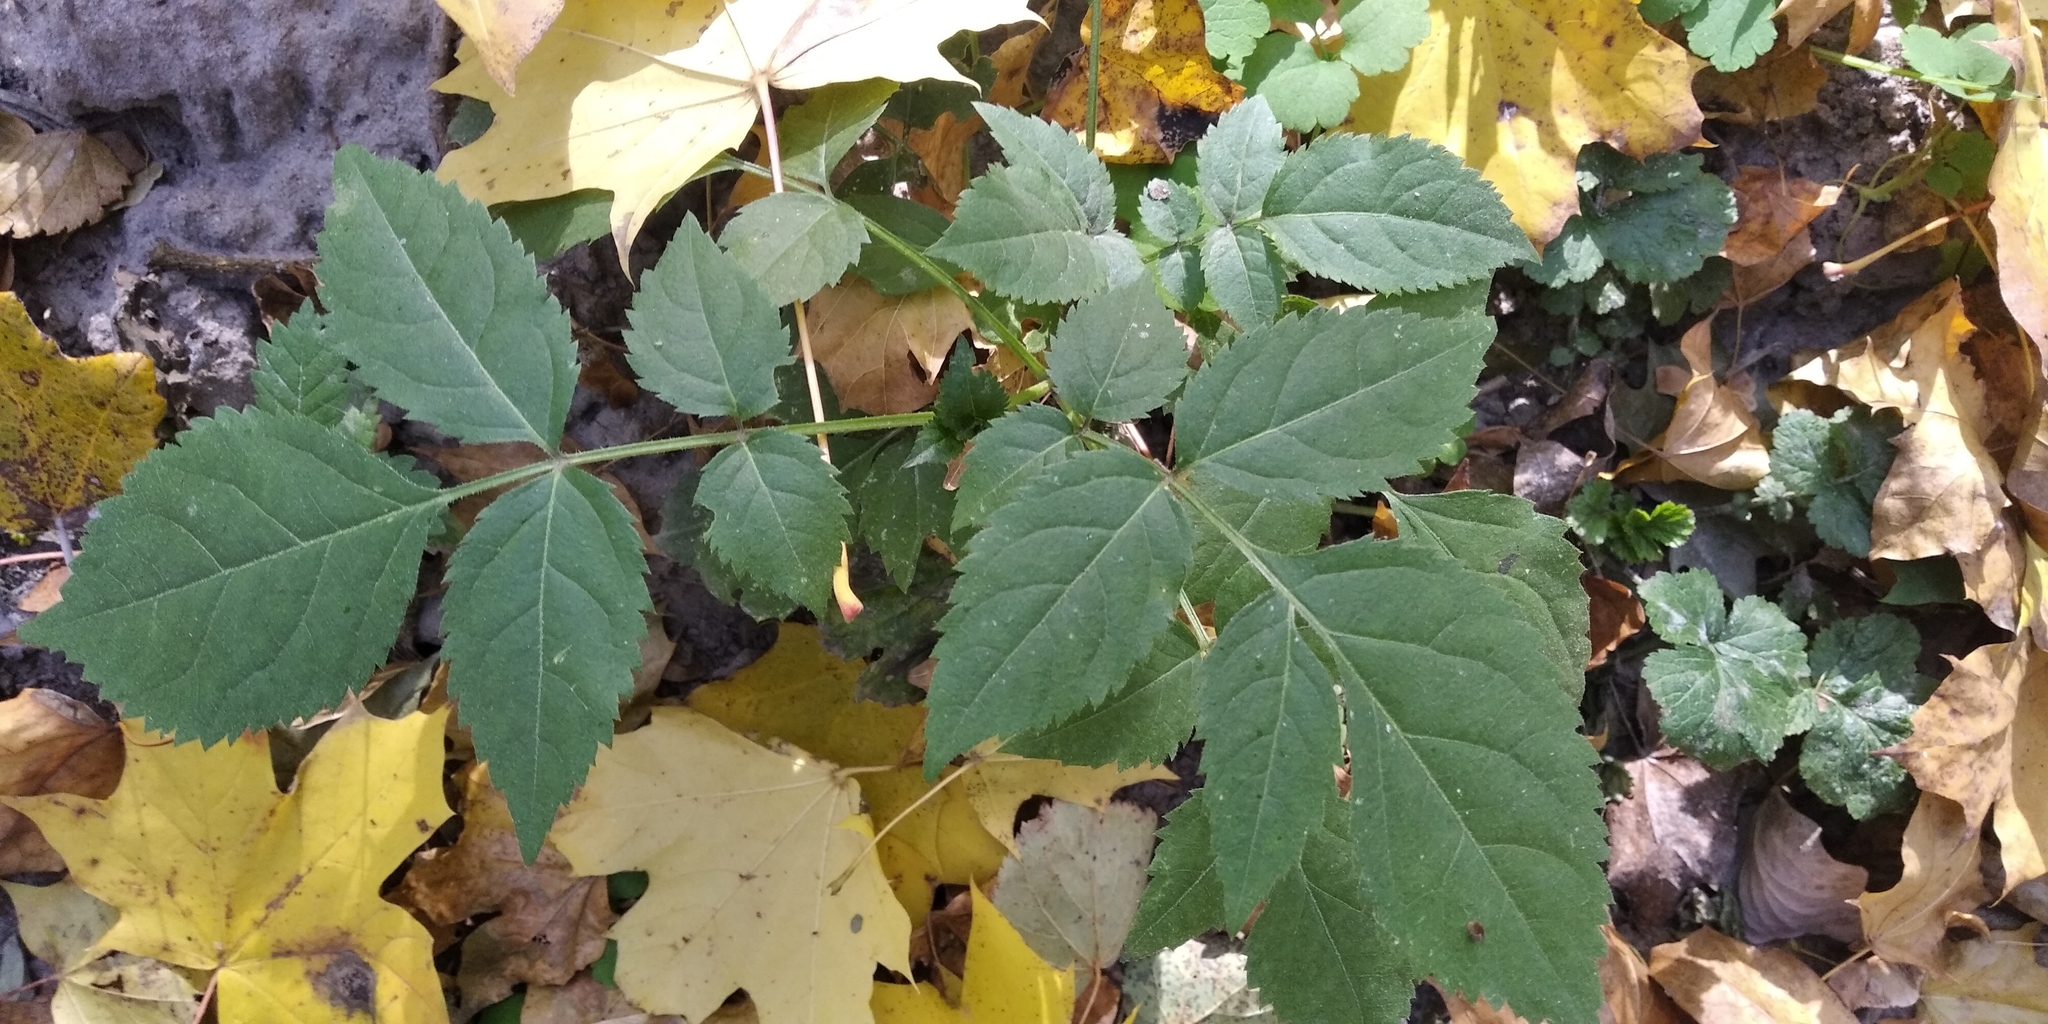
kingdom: Plantae
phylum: Tracheophyta
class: Magnoliopsida
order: Dipsacales
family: Viburnaceae
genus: Sambucus
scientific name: Sambucus nigra
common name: Elder
